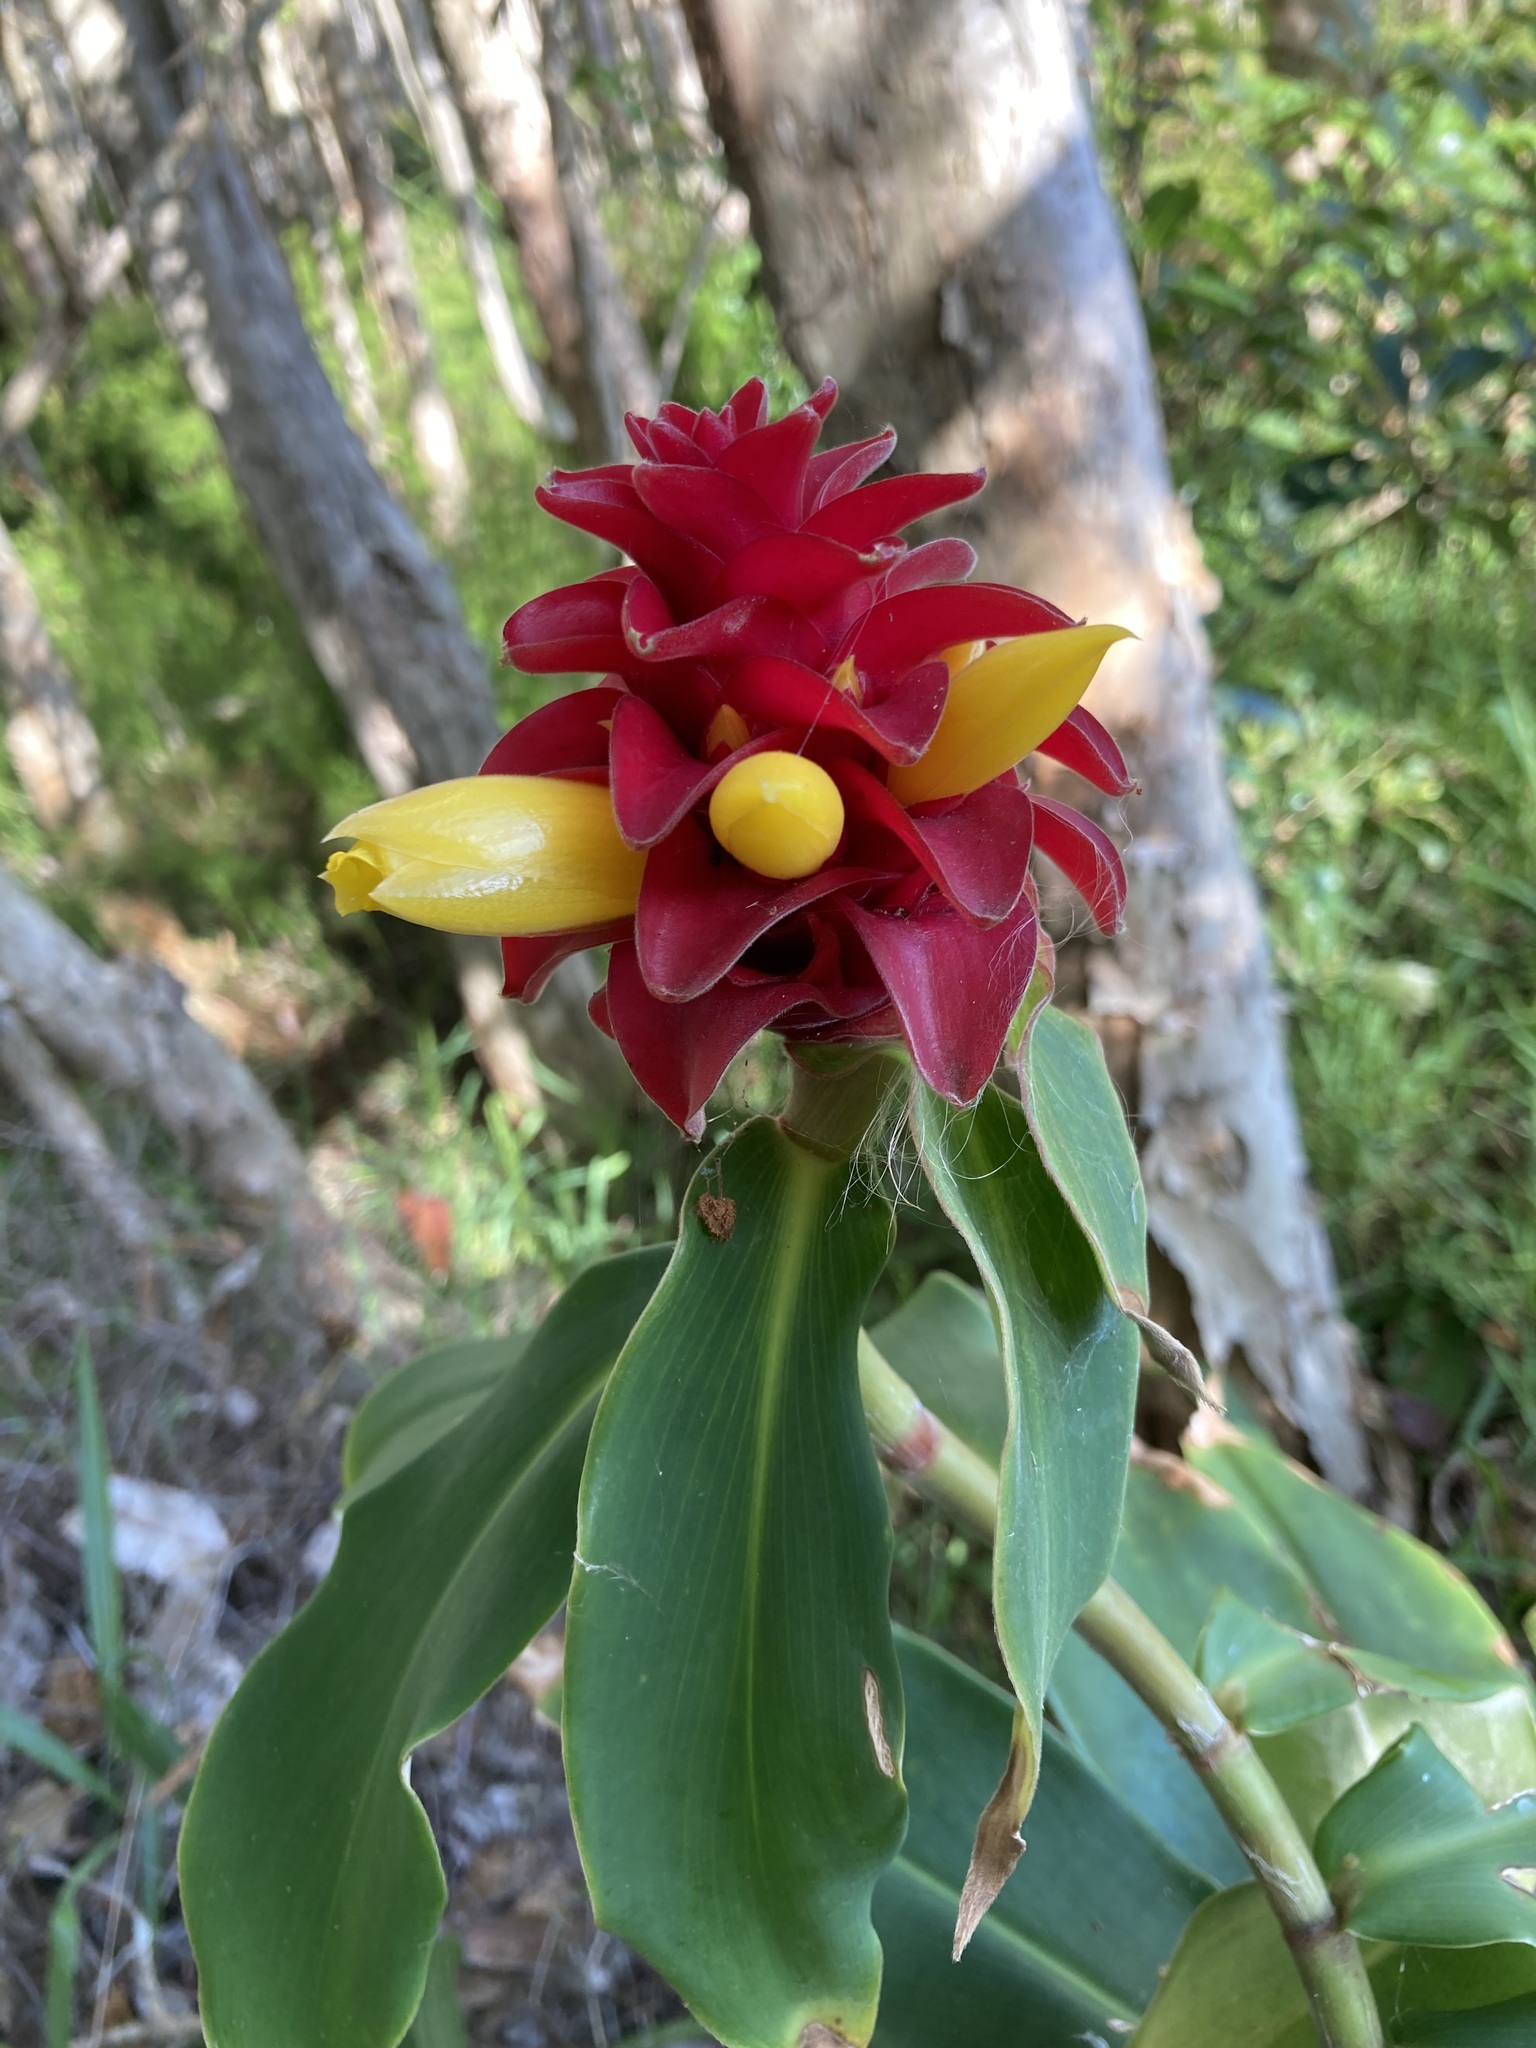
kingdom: Plantae
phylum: Tracheophyta
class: Liliopsida
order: Zingiberales
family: Costaceae
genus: Costus
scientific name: Costus comosus
